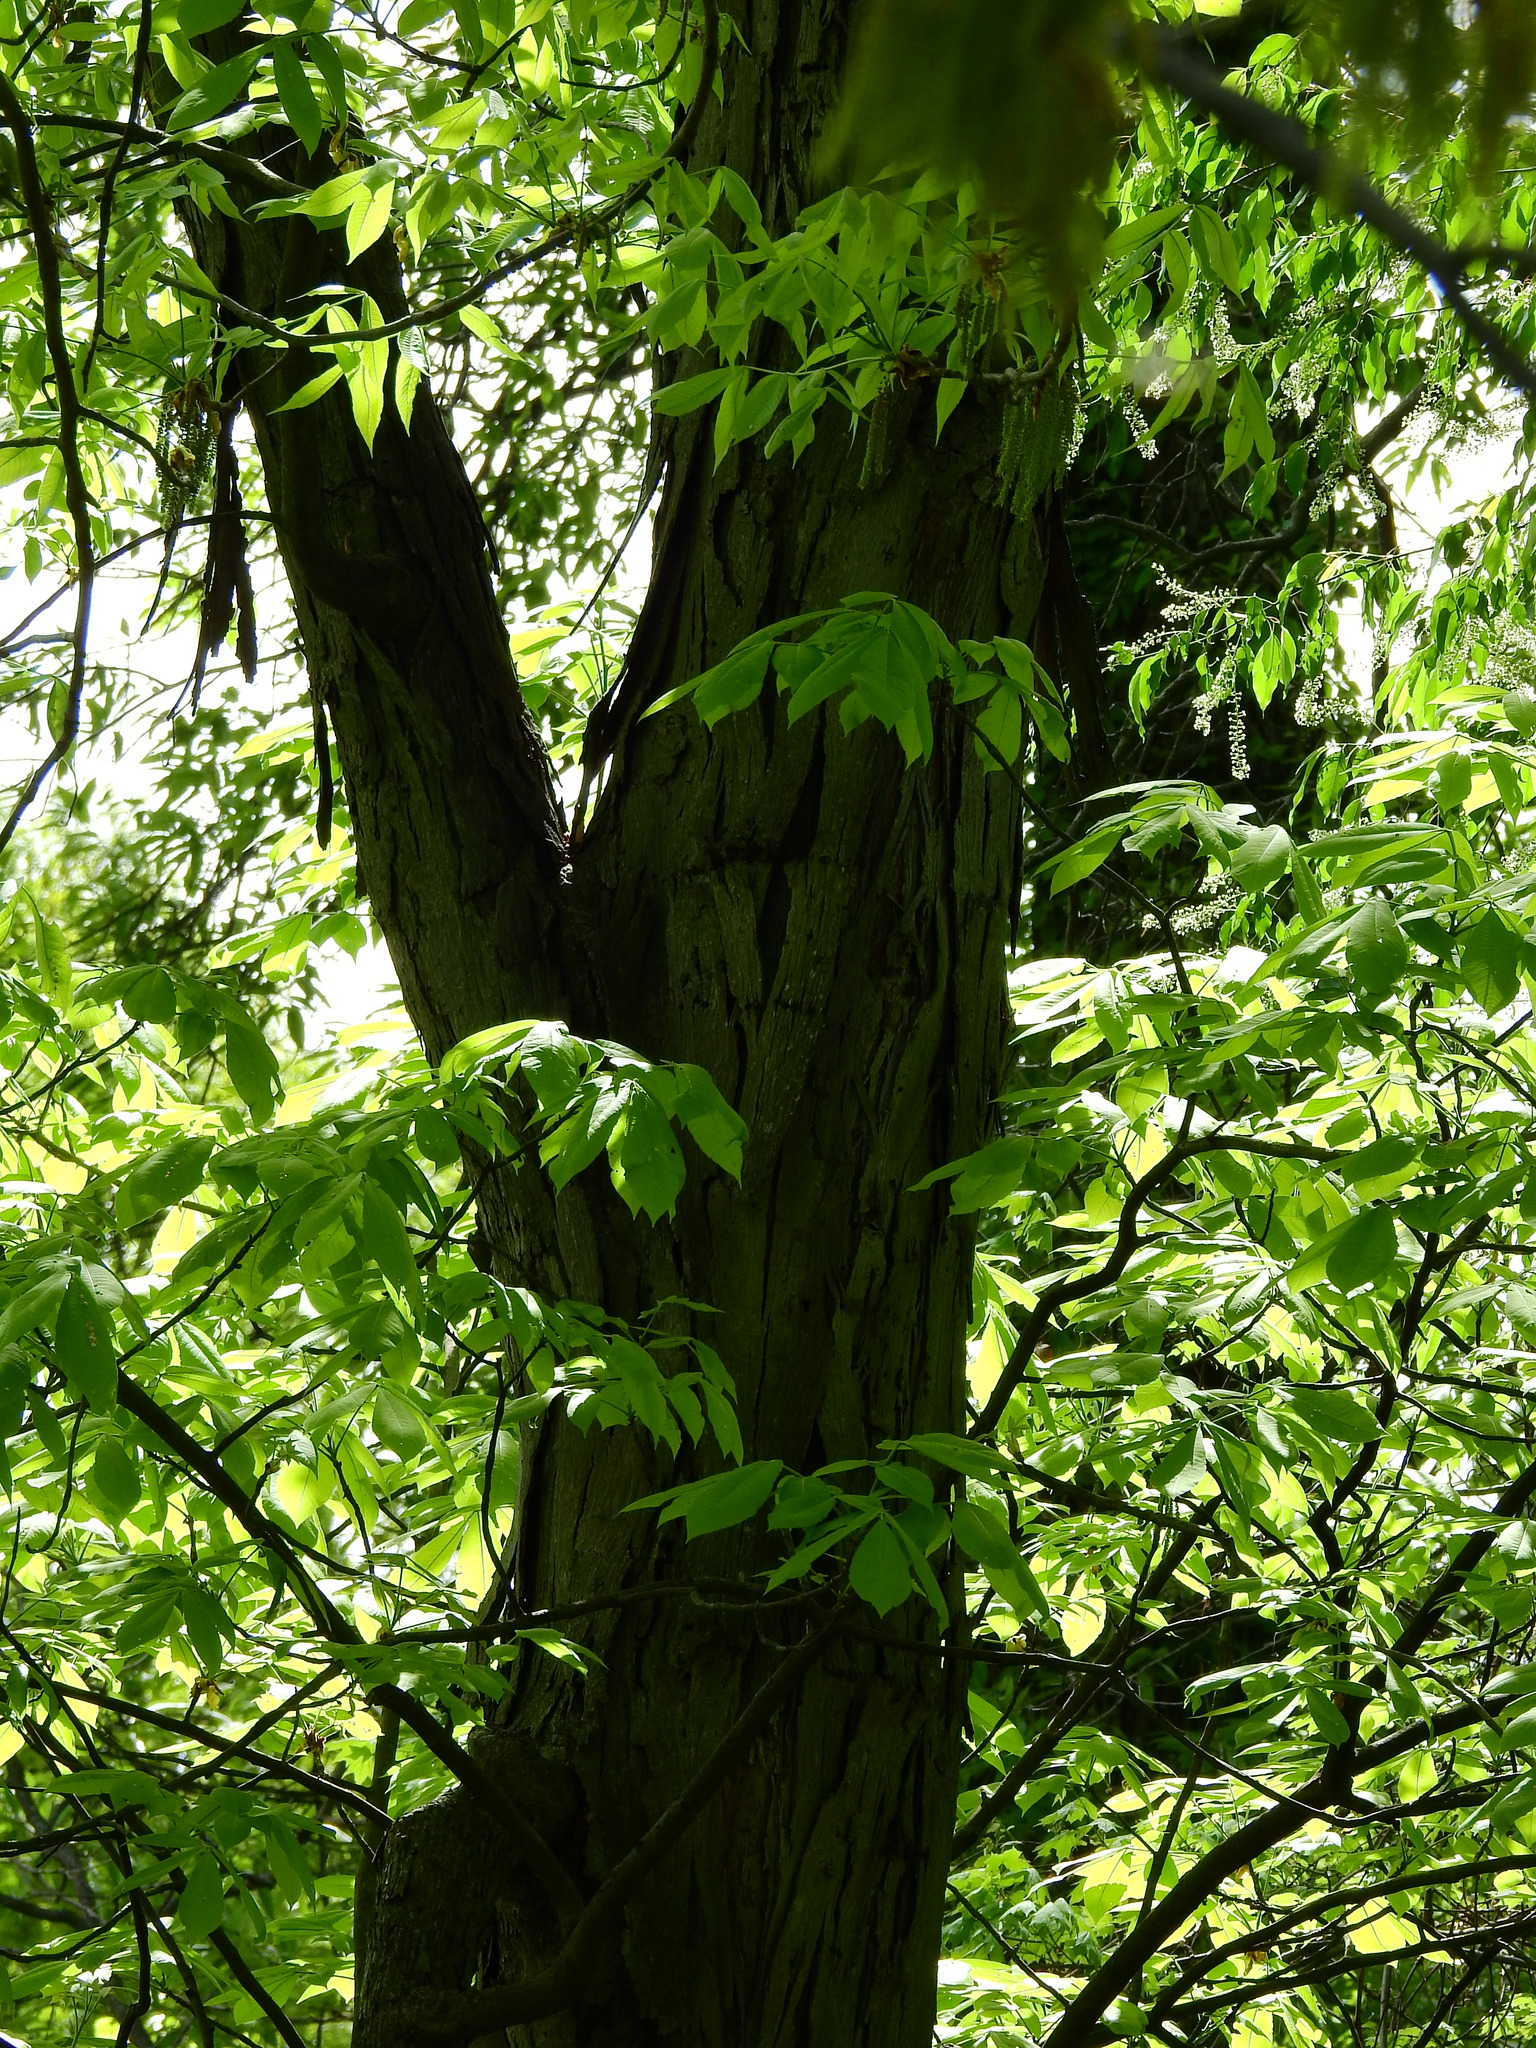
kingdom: Plantae
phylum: Tracheophyta
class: Magnoliopsida
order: Fagales
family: Juglandaceae
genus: Carya
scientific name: Carya ovata
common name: Shagbark hickory
